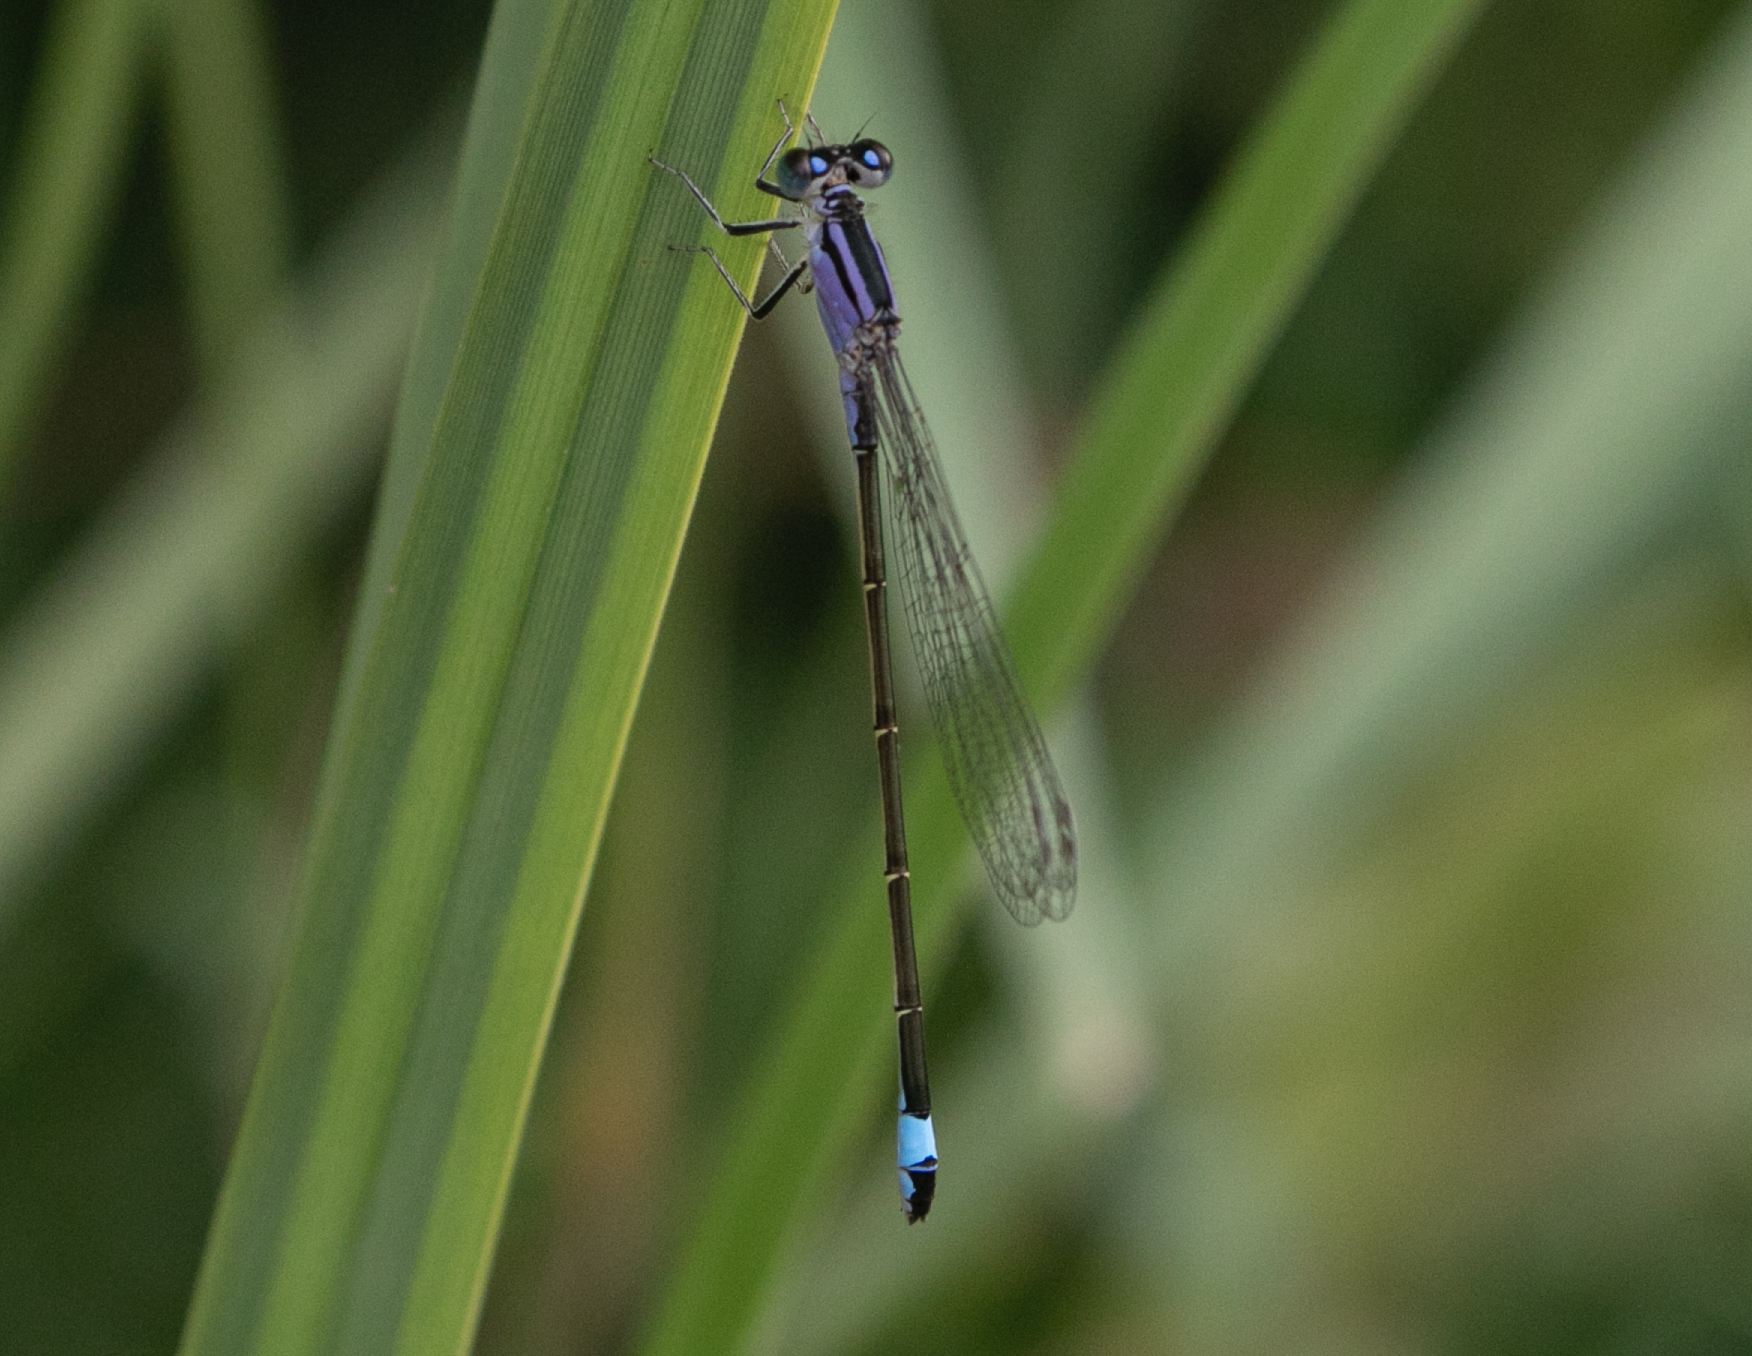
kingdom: Animalia
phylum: Arthropoda
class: Insecta
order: Odonata
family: Coenagrionidae
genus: Ischnura
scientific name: Ischnura elegans
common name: Blue-tailed damselfly
